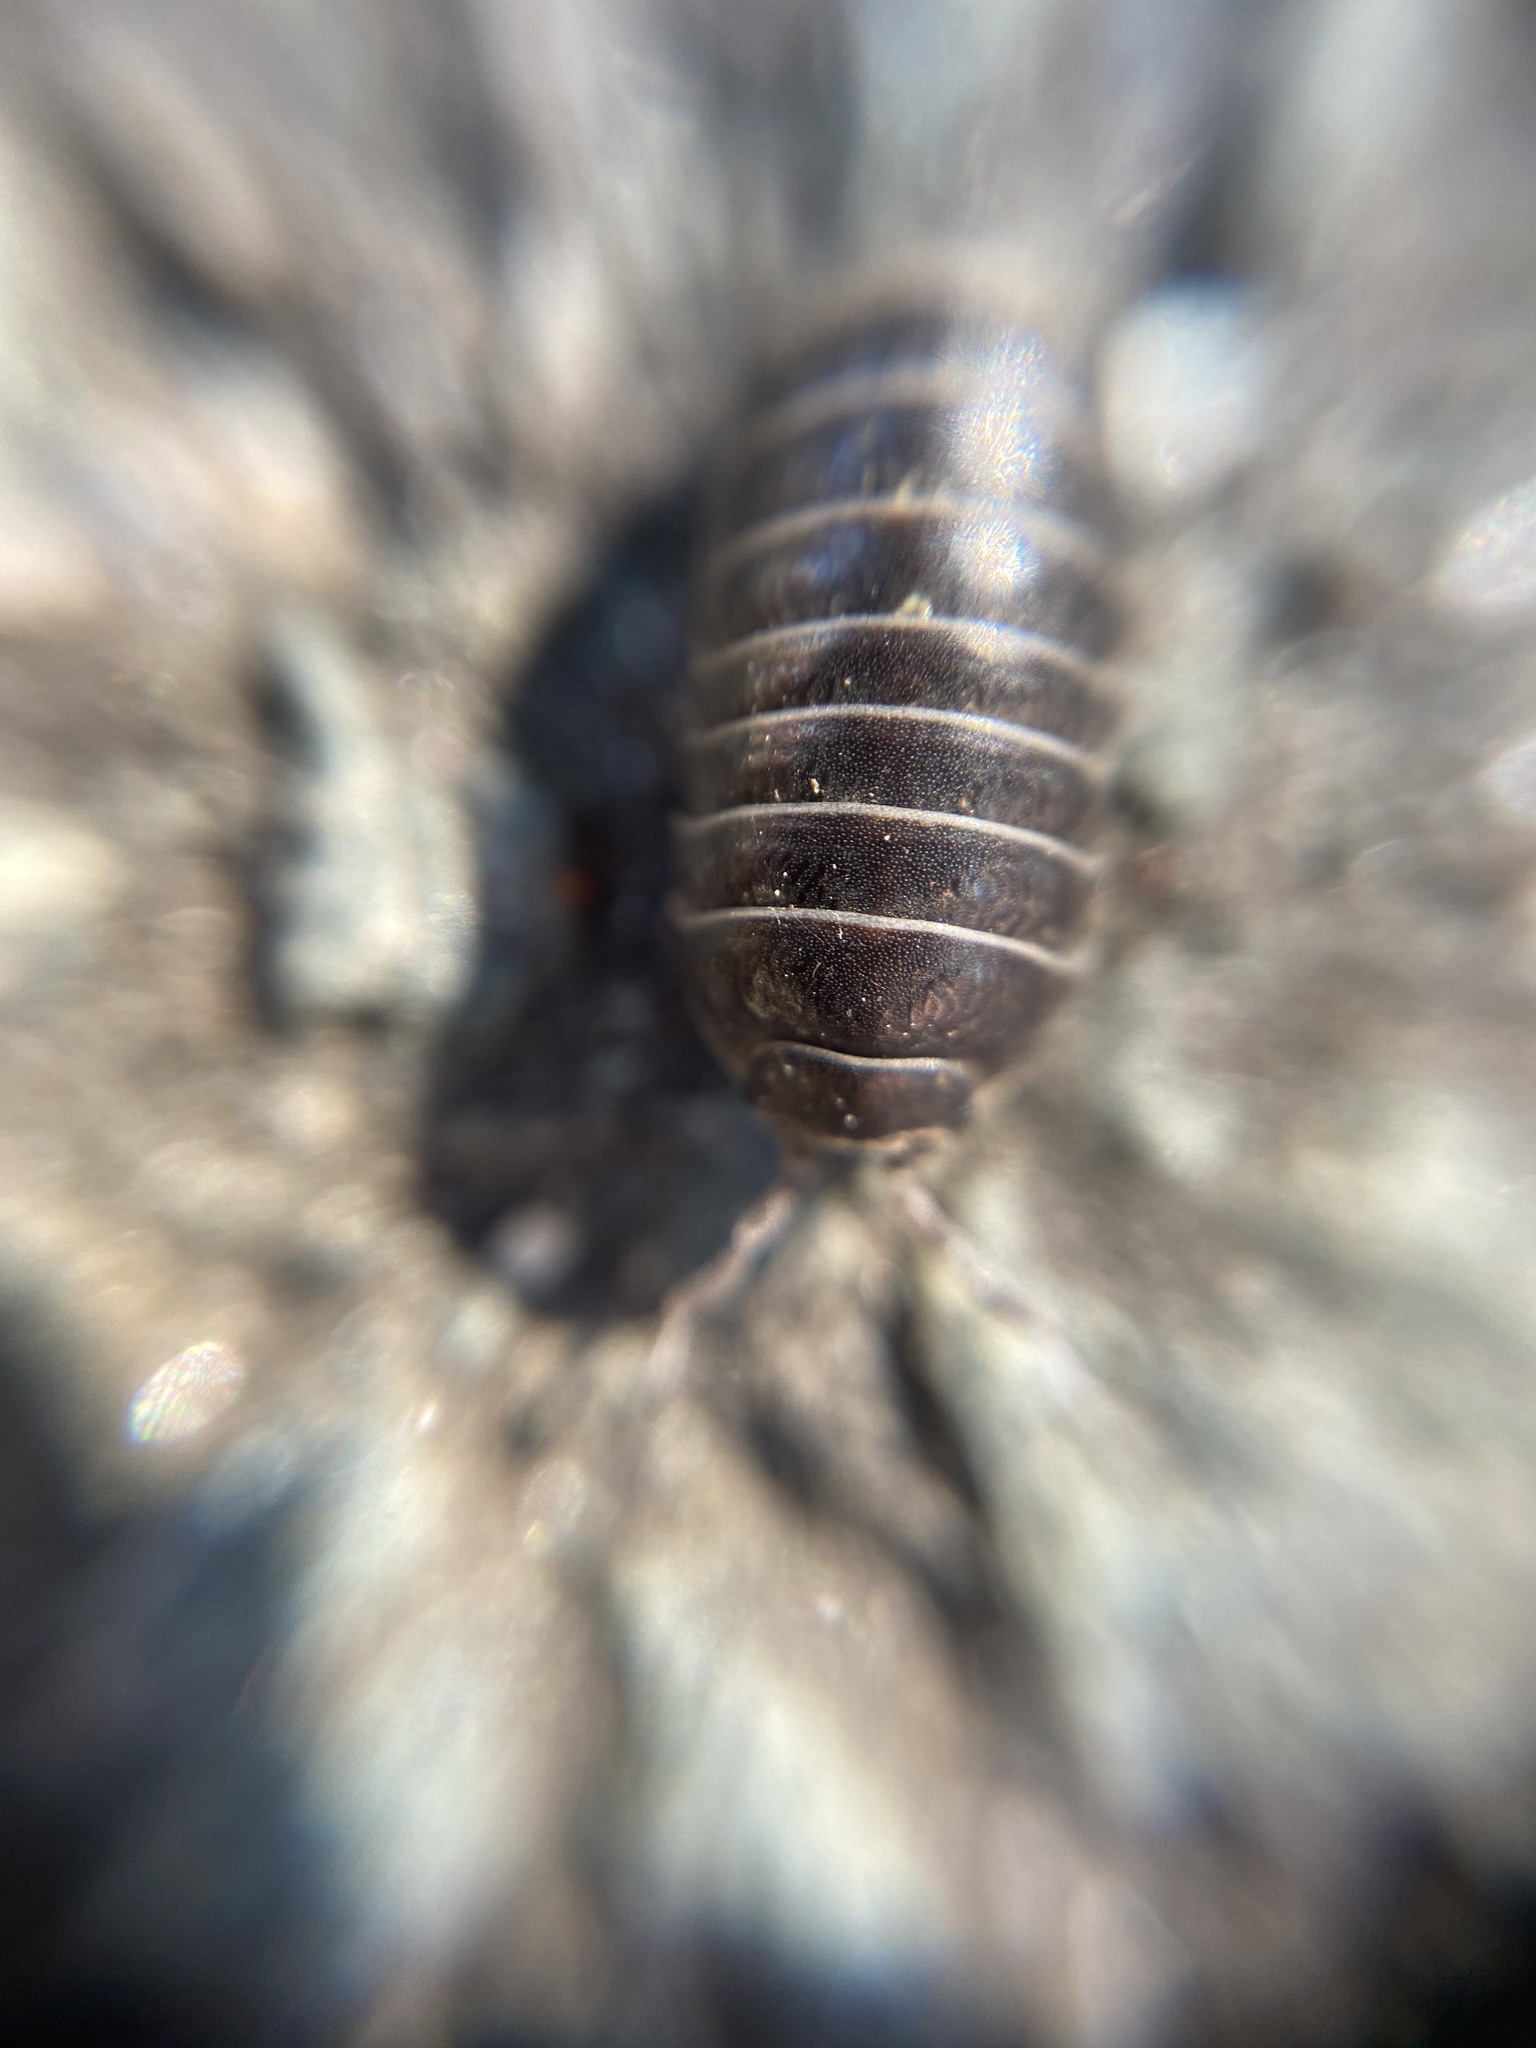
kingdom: Animalia
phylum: Arthropoda
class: Malacostraca
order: Isopoda
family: Armadillidiidae
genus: Armadillidium
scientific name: Armadillidium vulgare
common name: Common pill woodlouse
